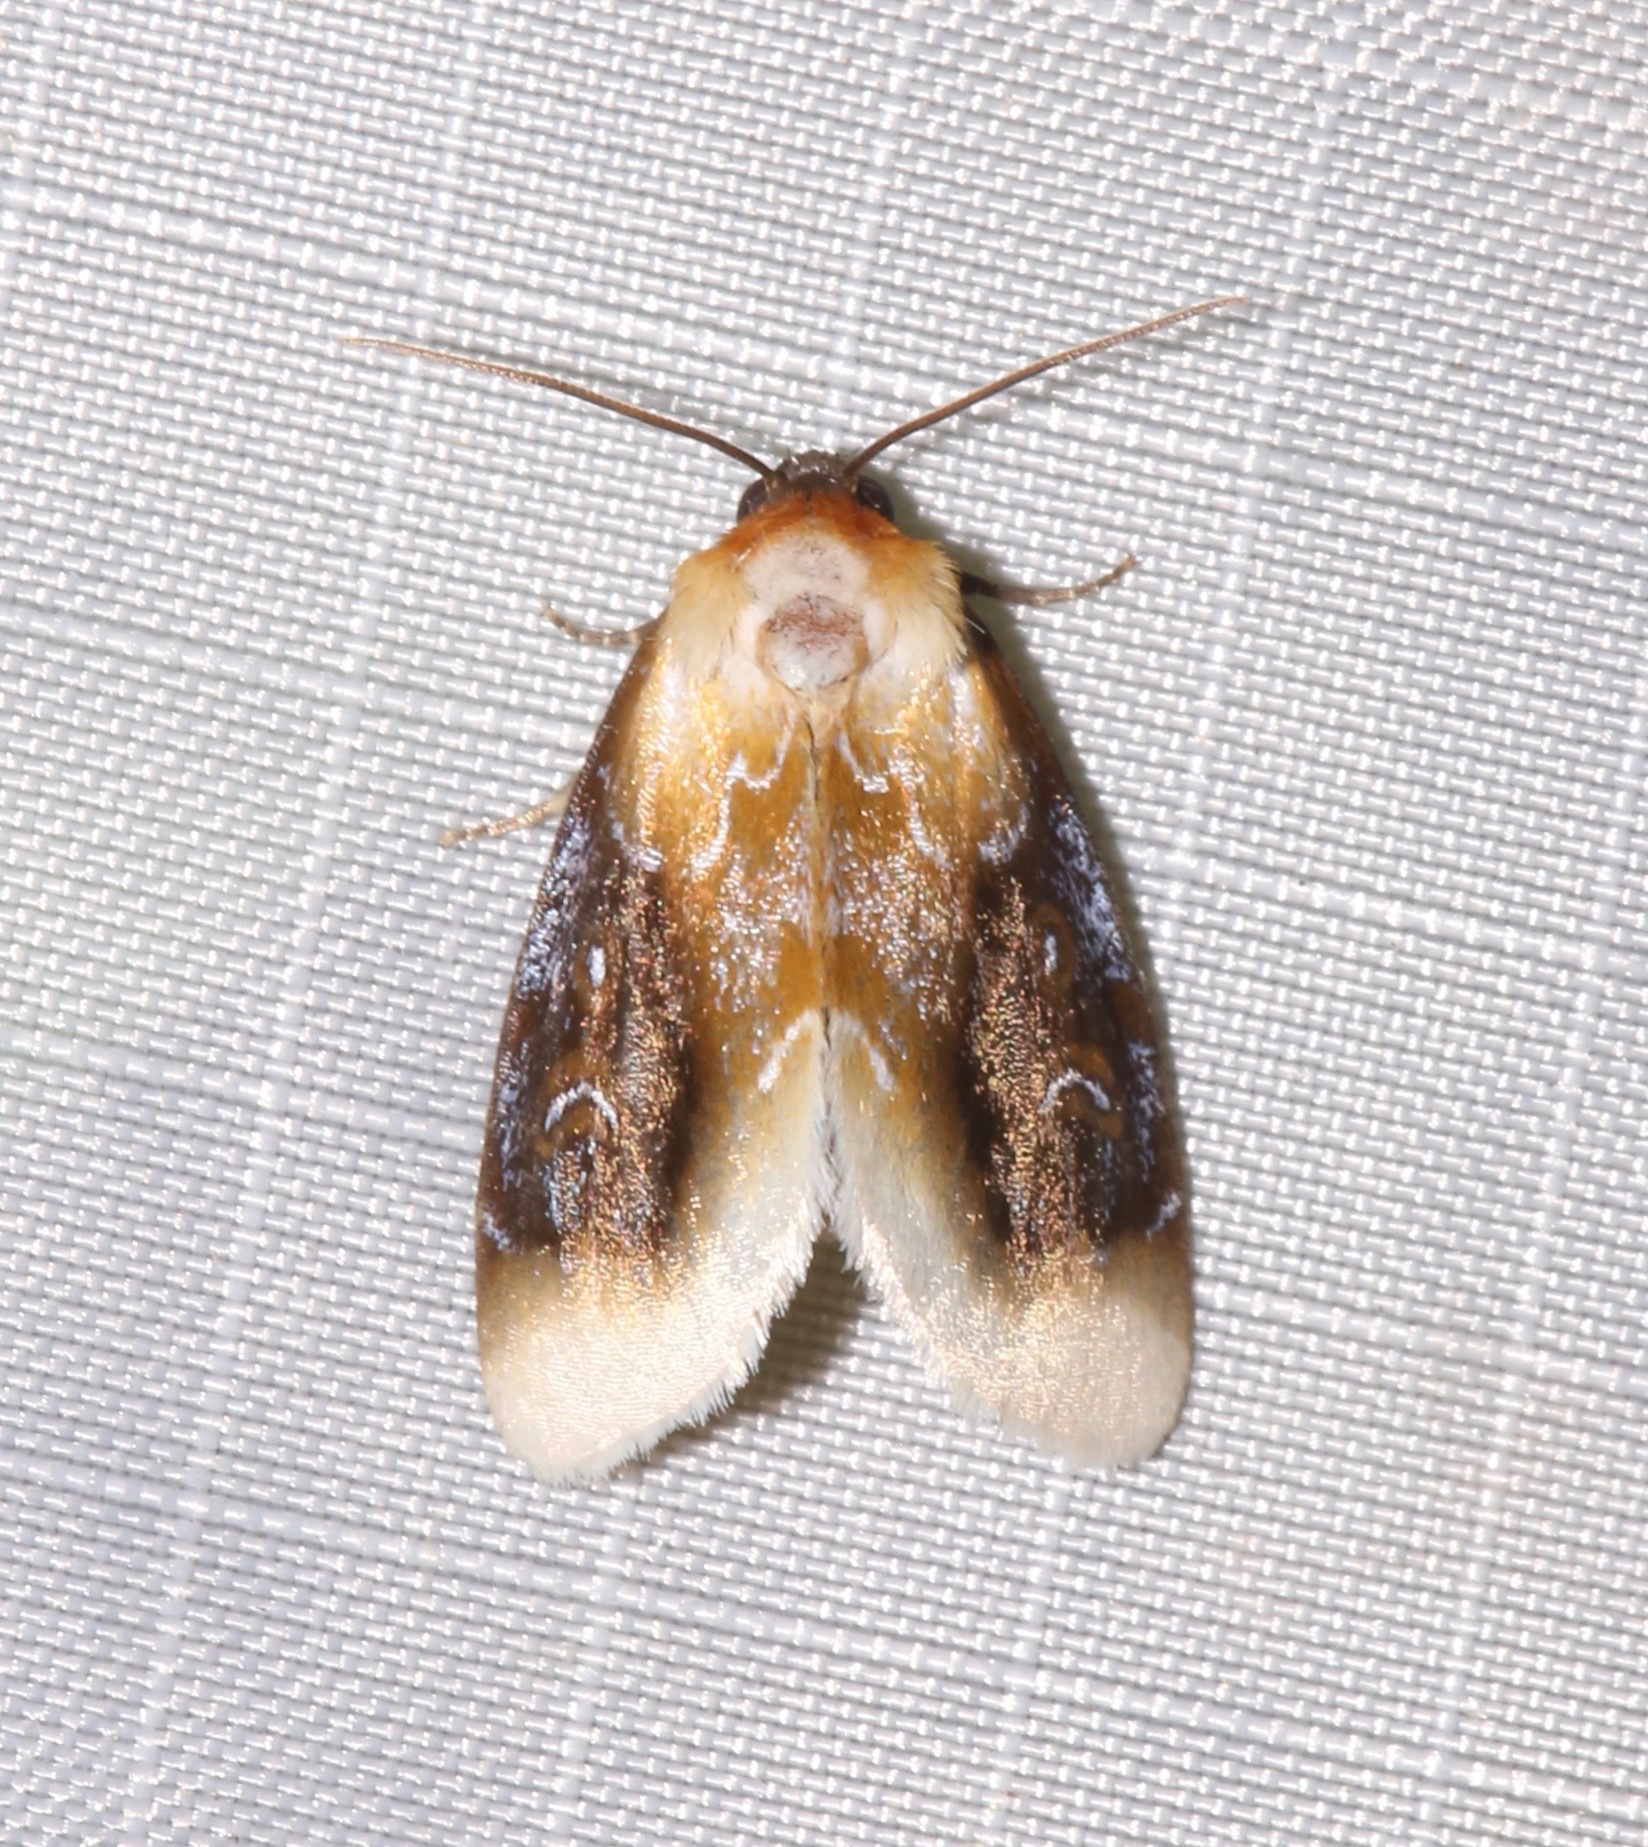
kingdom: Animalia
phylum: Arthropoda
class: Insecta
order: Lepidoptera
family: Noctuidae
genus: Chrysoecia
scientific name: Chrysoecia scira
